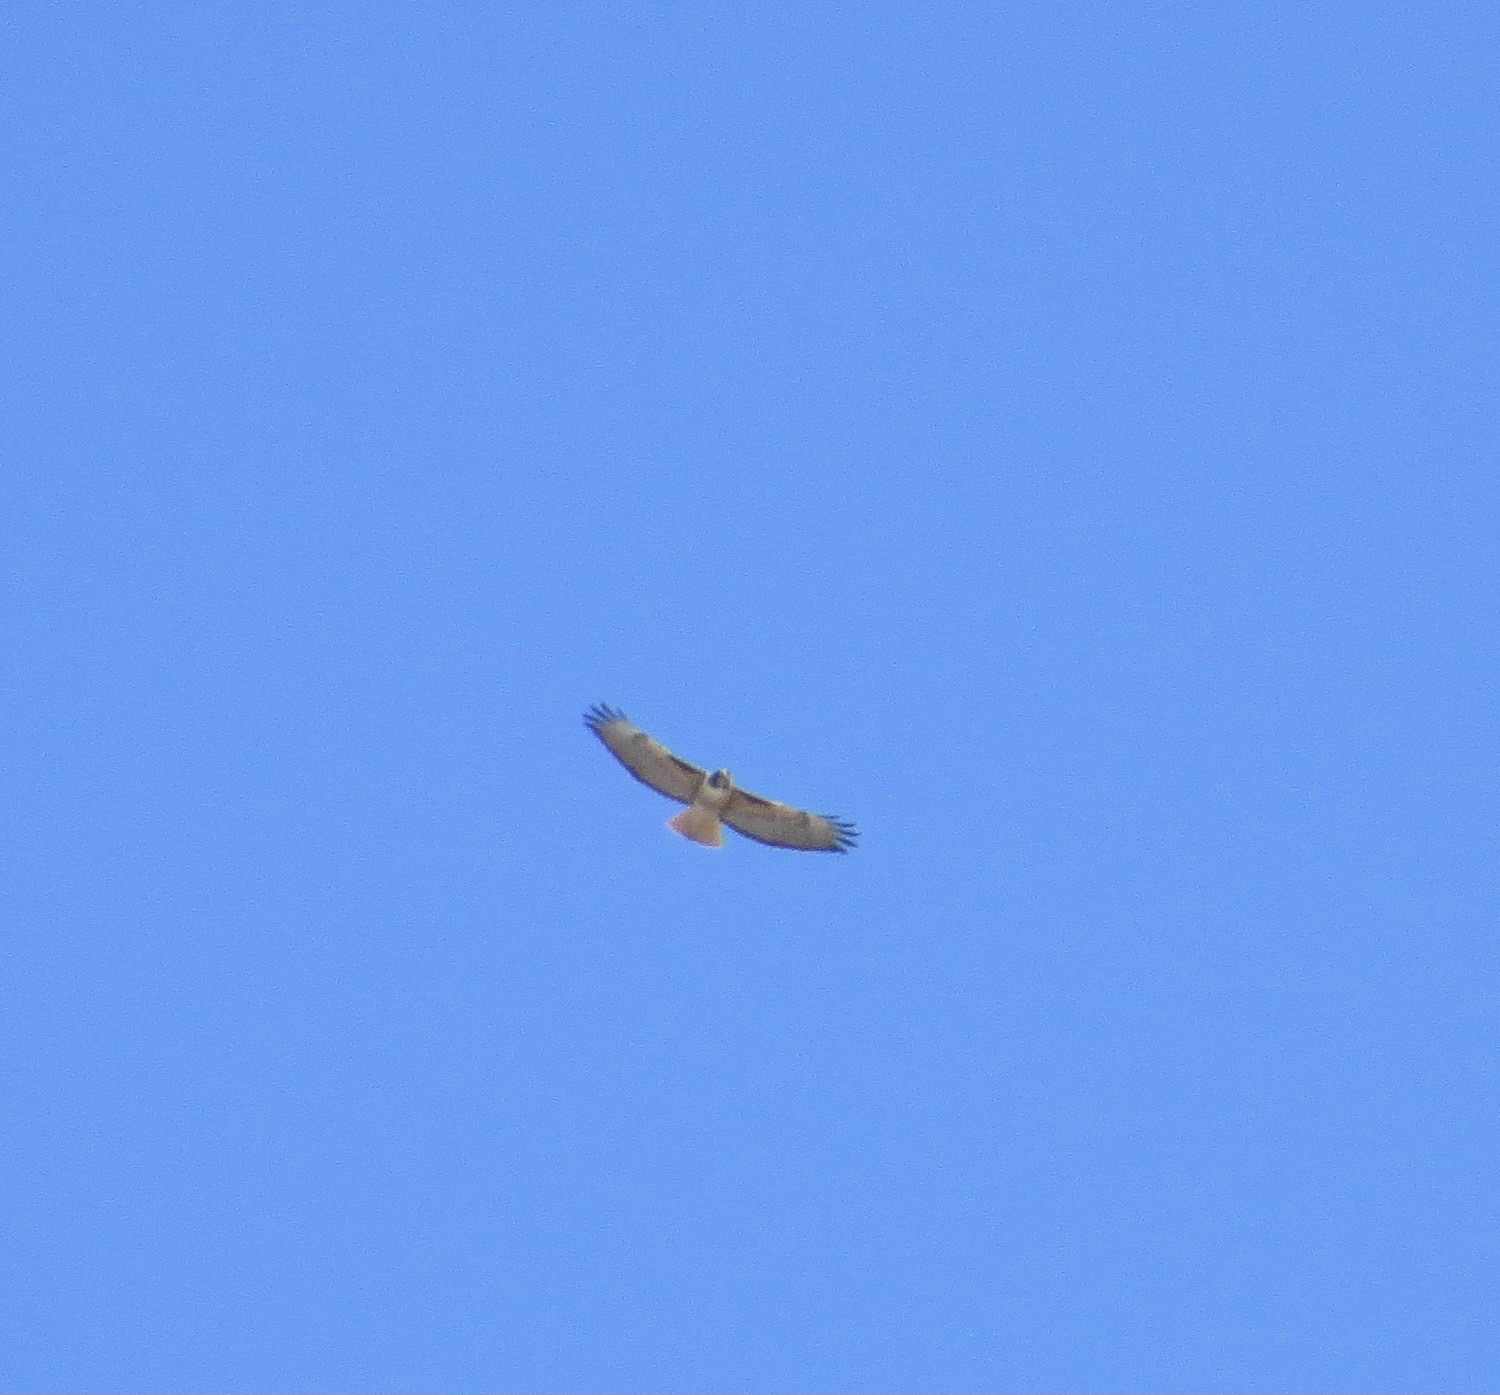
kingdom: Animalia
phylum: Chordata
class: Aves
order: Accipitriformes
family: Accipitridae
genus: Buteo
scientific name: Buteo jamaicensis
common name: Red-tailed hawk
